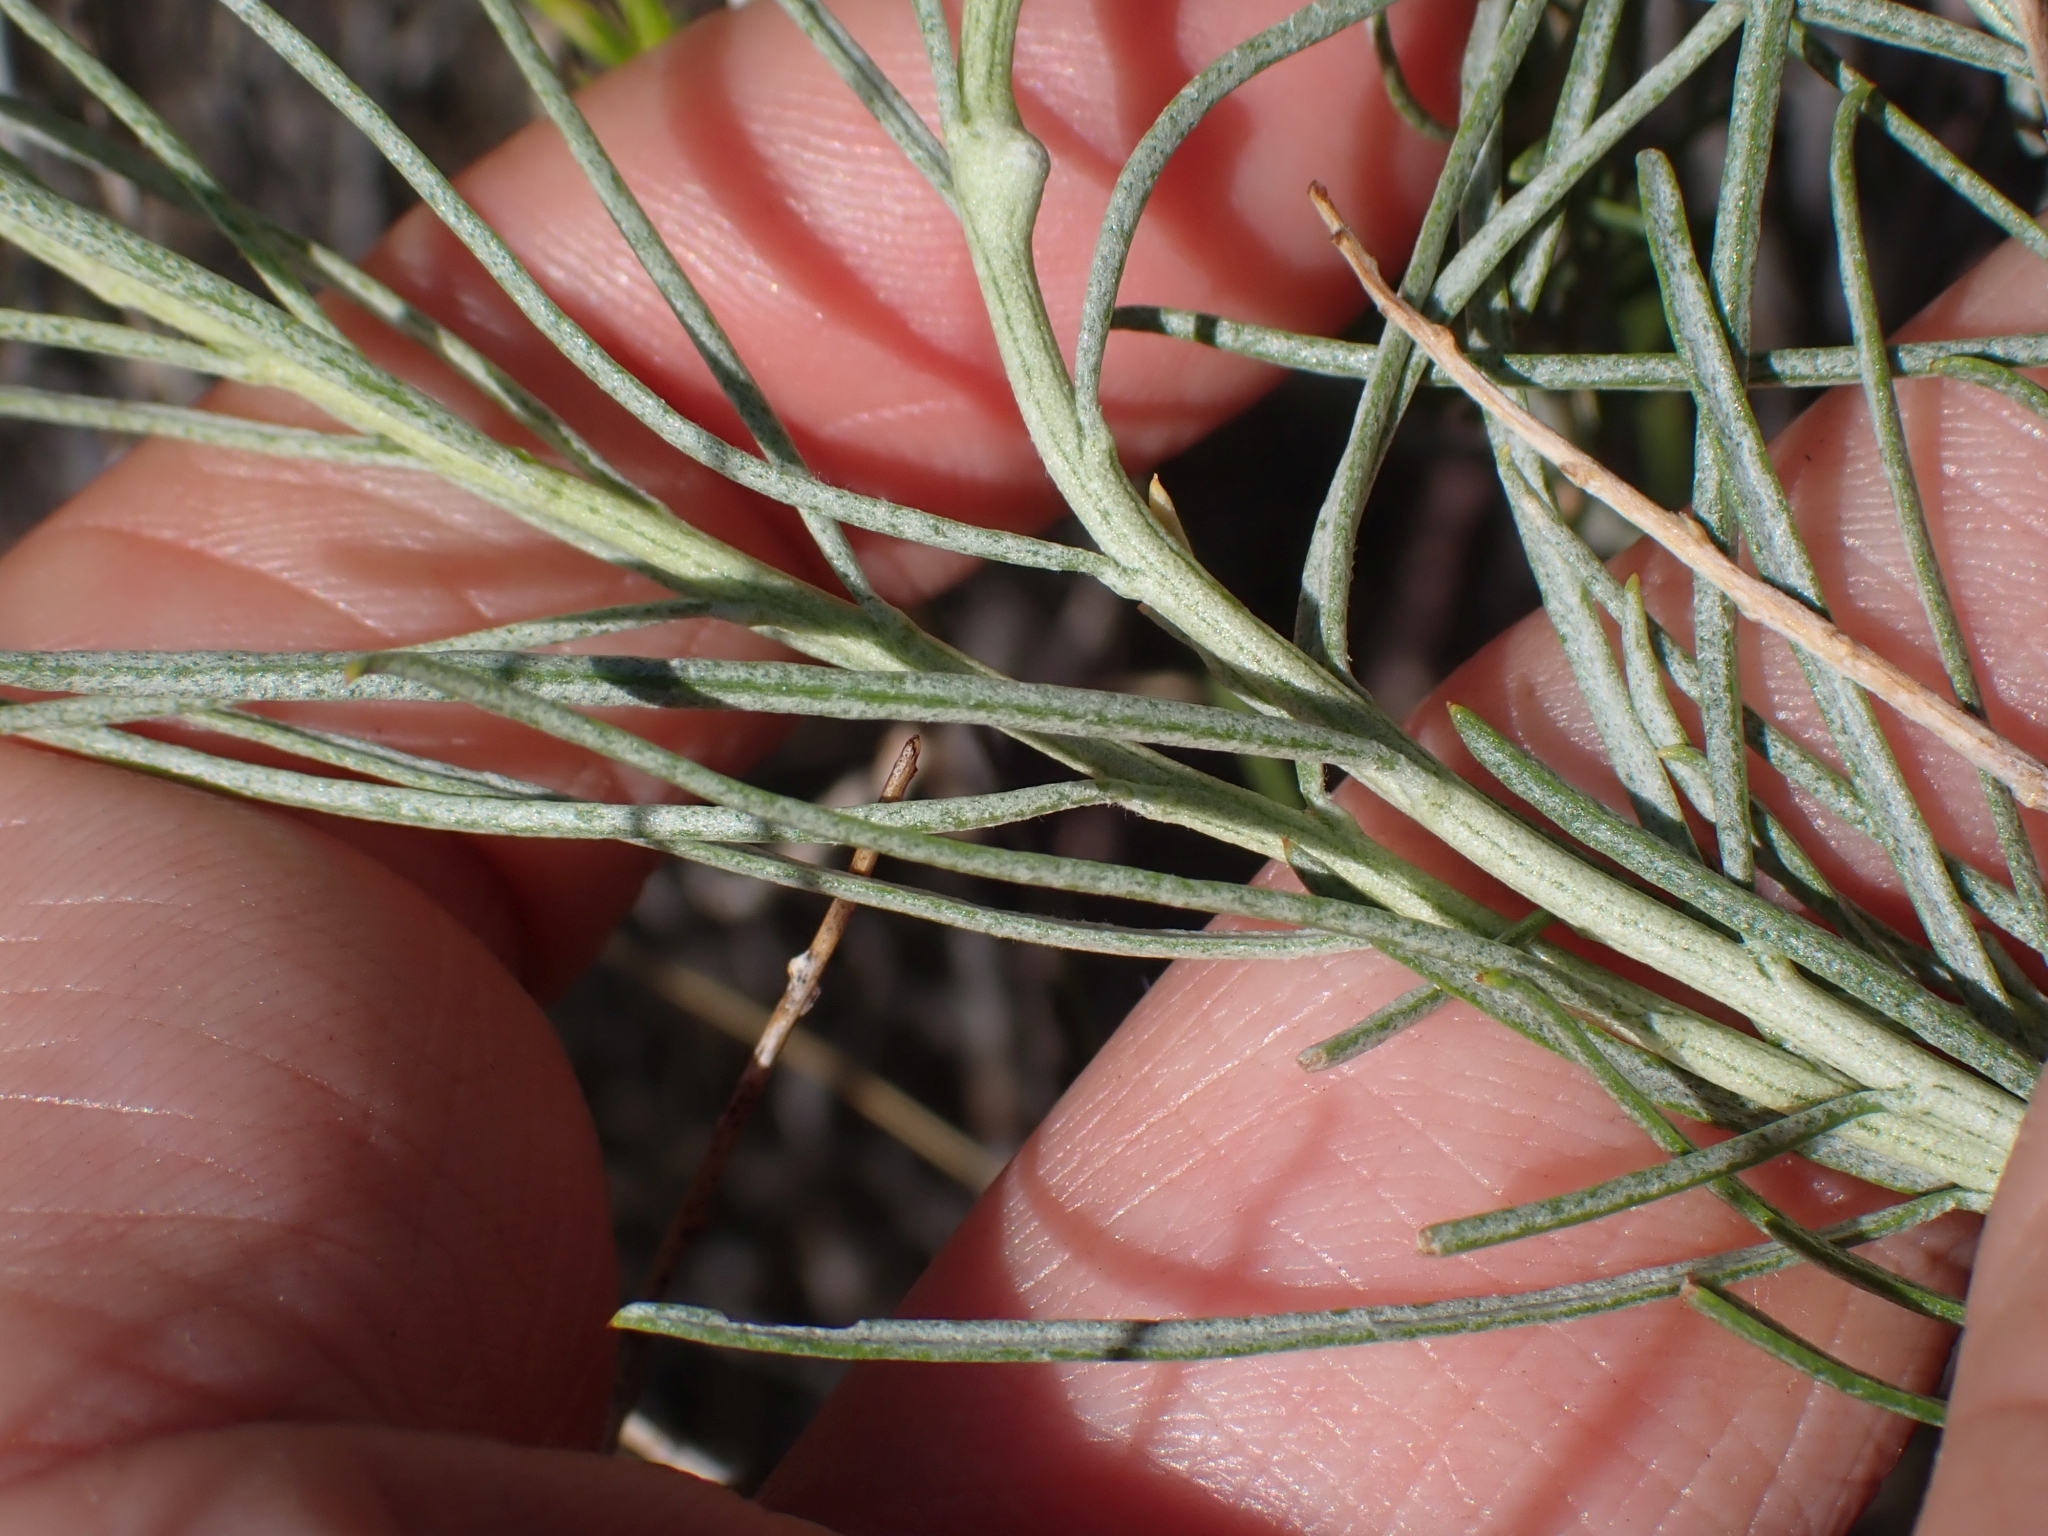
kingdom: Plantae
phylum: Tracheophyta
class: Magnoliopsida
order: Asterales
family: Asteraceae
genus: Ericameria
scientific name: Ericameria nauseosa
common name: Rubber rabbitbrush
